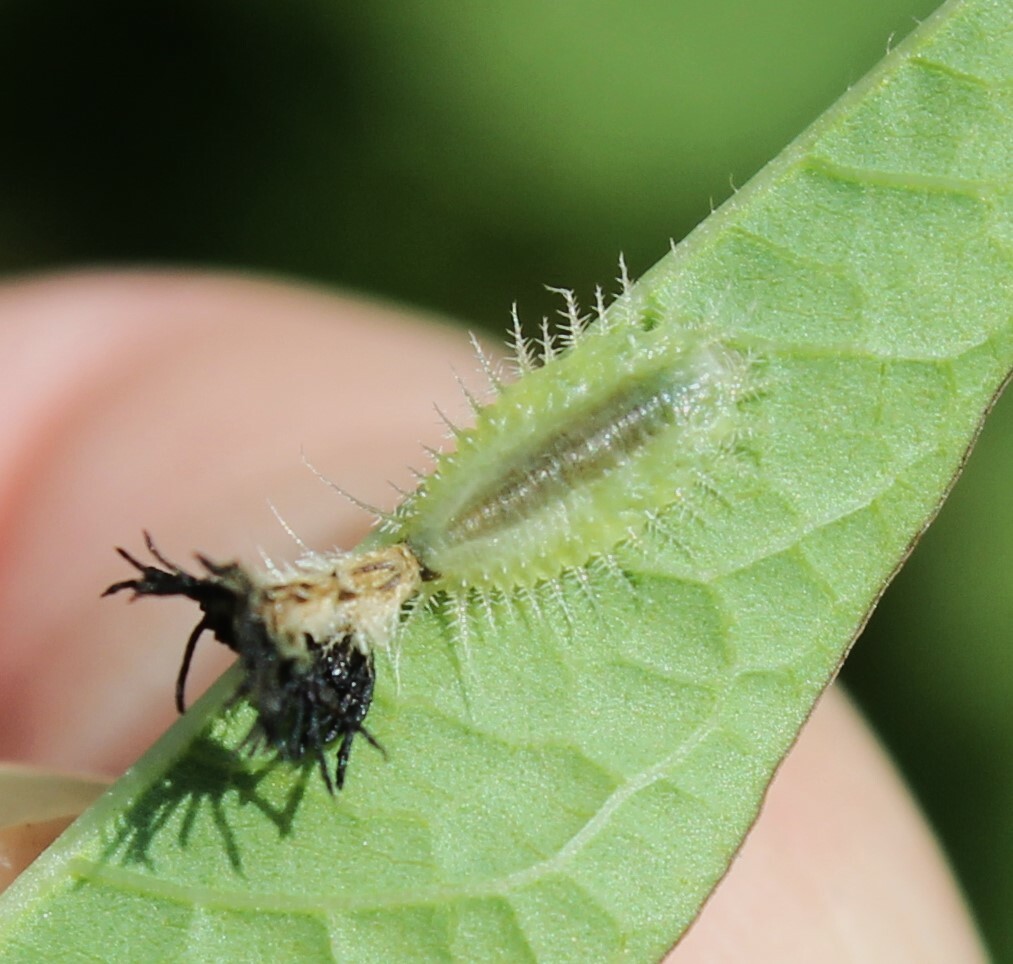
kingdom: Animalia
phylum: Arthropoda
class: Insecta
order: Coleoptera
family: Chrysomelidae
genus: Deloyala
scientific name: Deloyala guttata
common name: Mottled tortoise beetle
